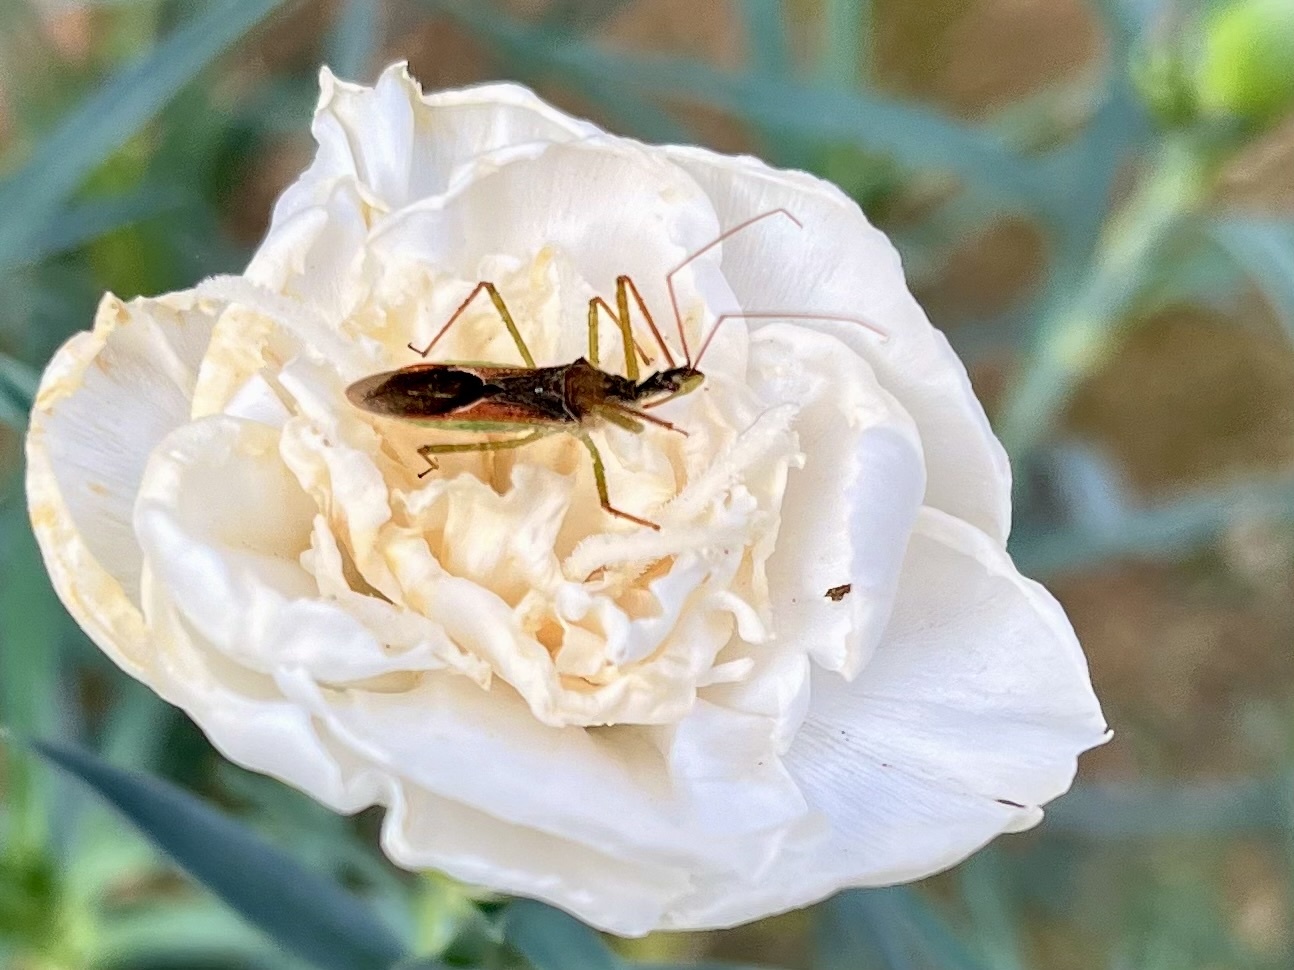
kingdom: Animalia
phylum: Arthropoda
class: Insecta
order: Hemiptera
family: Reduviidae
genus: Zelus
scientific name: Zelus renardii
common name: Assassin bug
